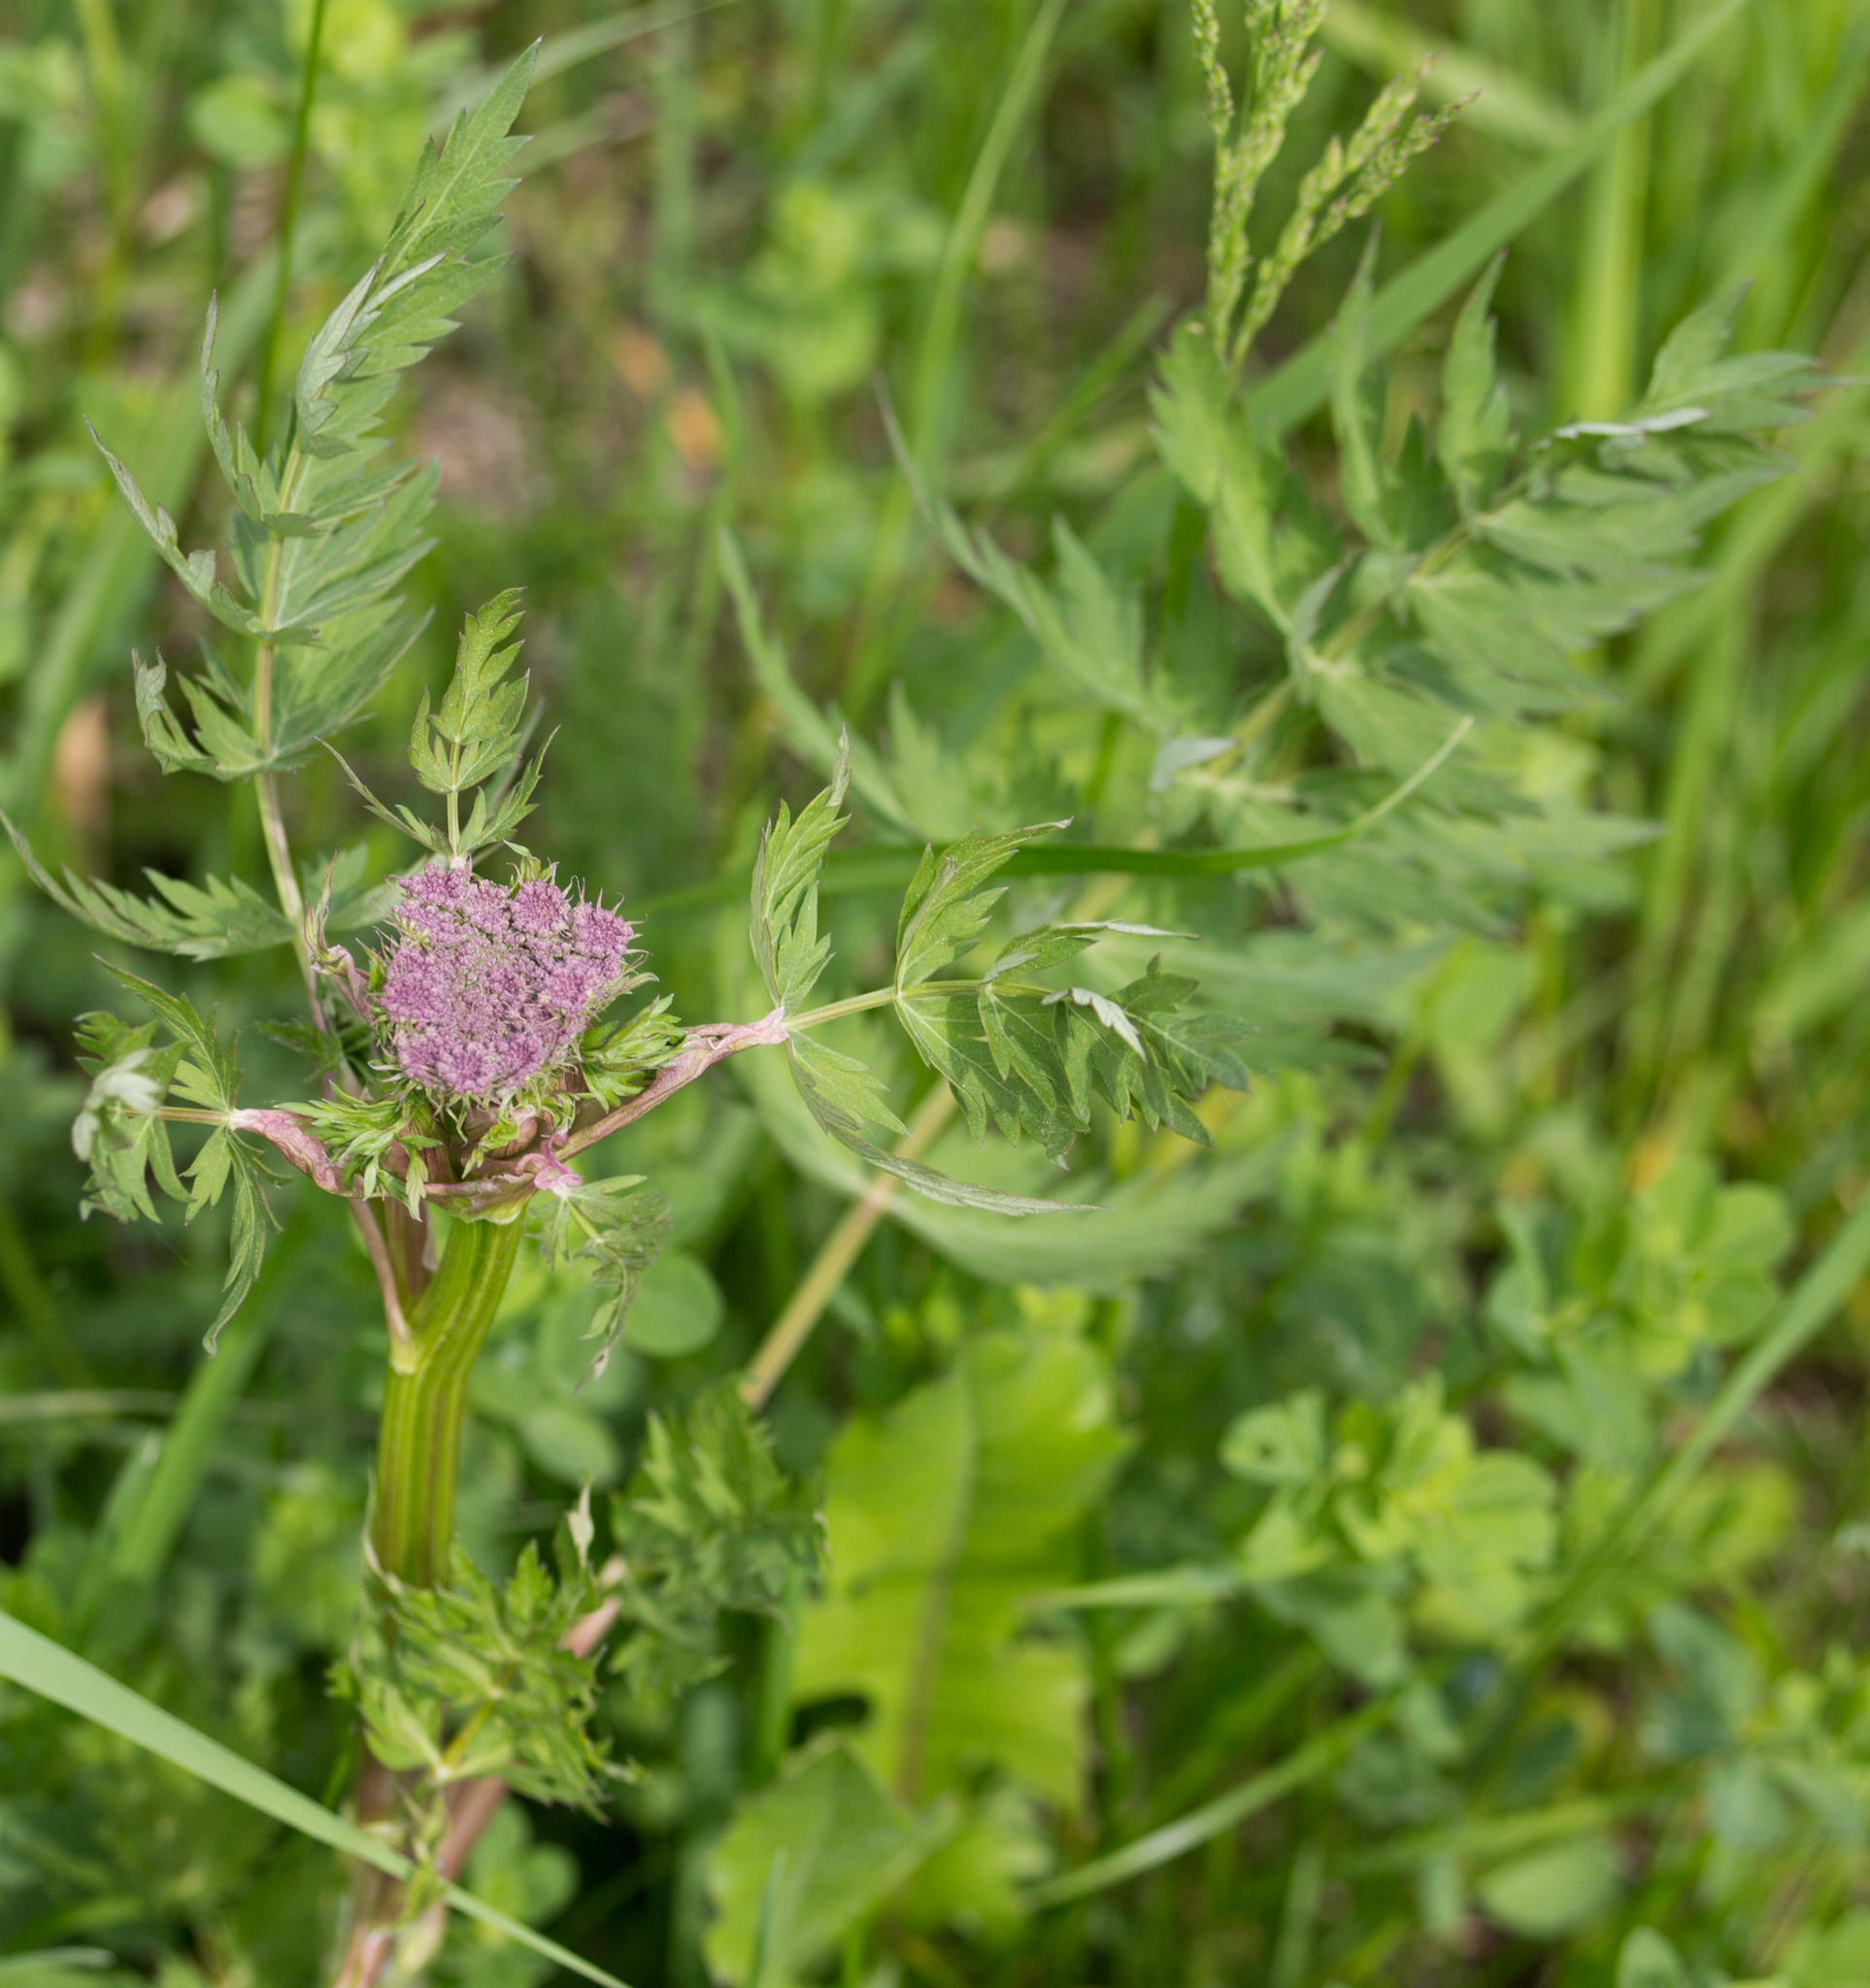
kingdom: Plantae
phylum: Tracheophyta
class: Magnoliopsida
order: Apiales
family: Apiaceae
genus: Seseli
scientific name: Seseli libanotis
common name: Mooncarrot
